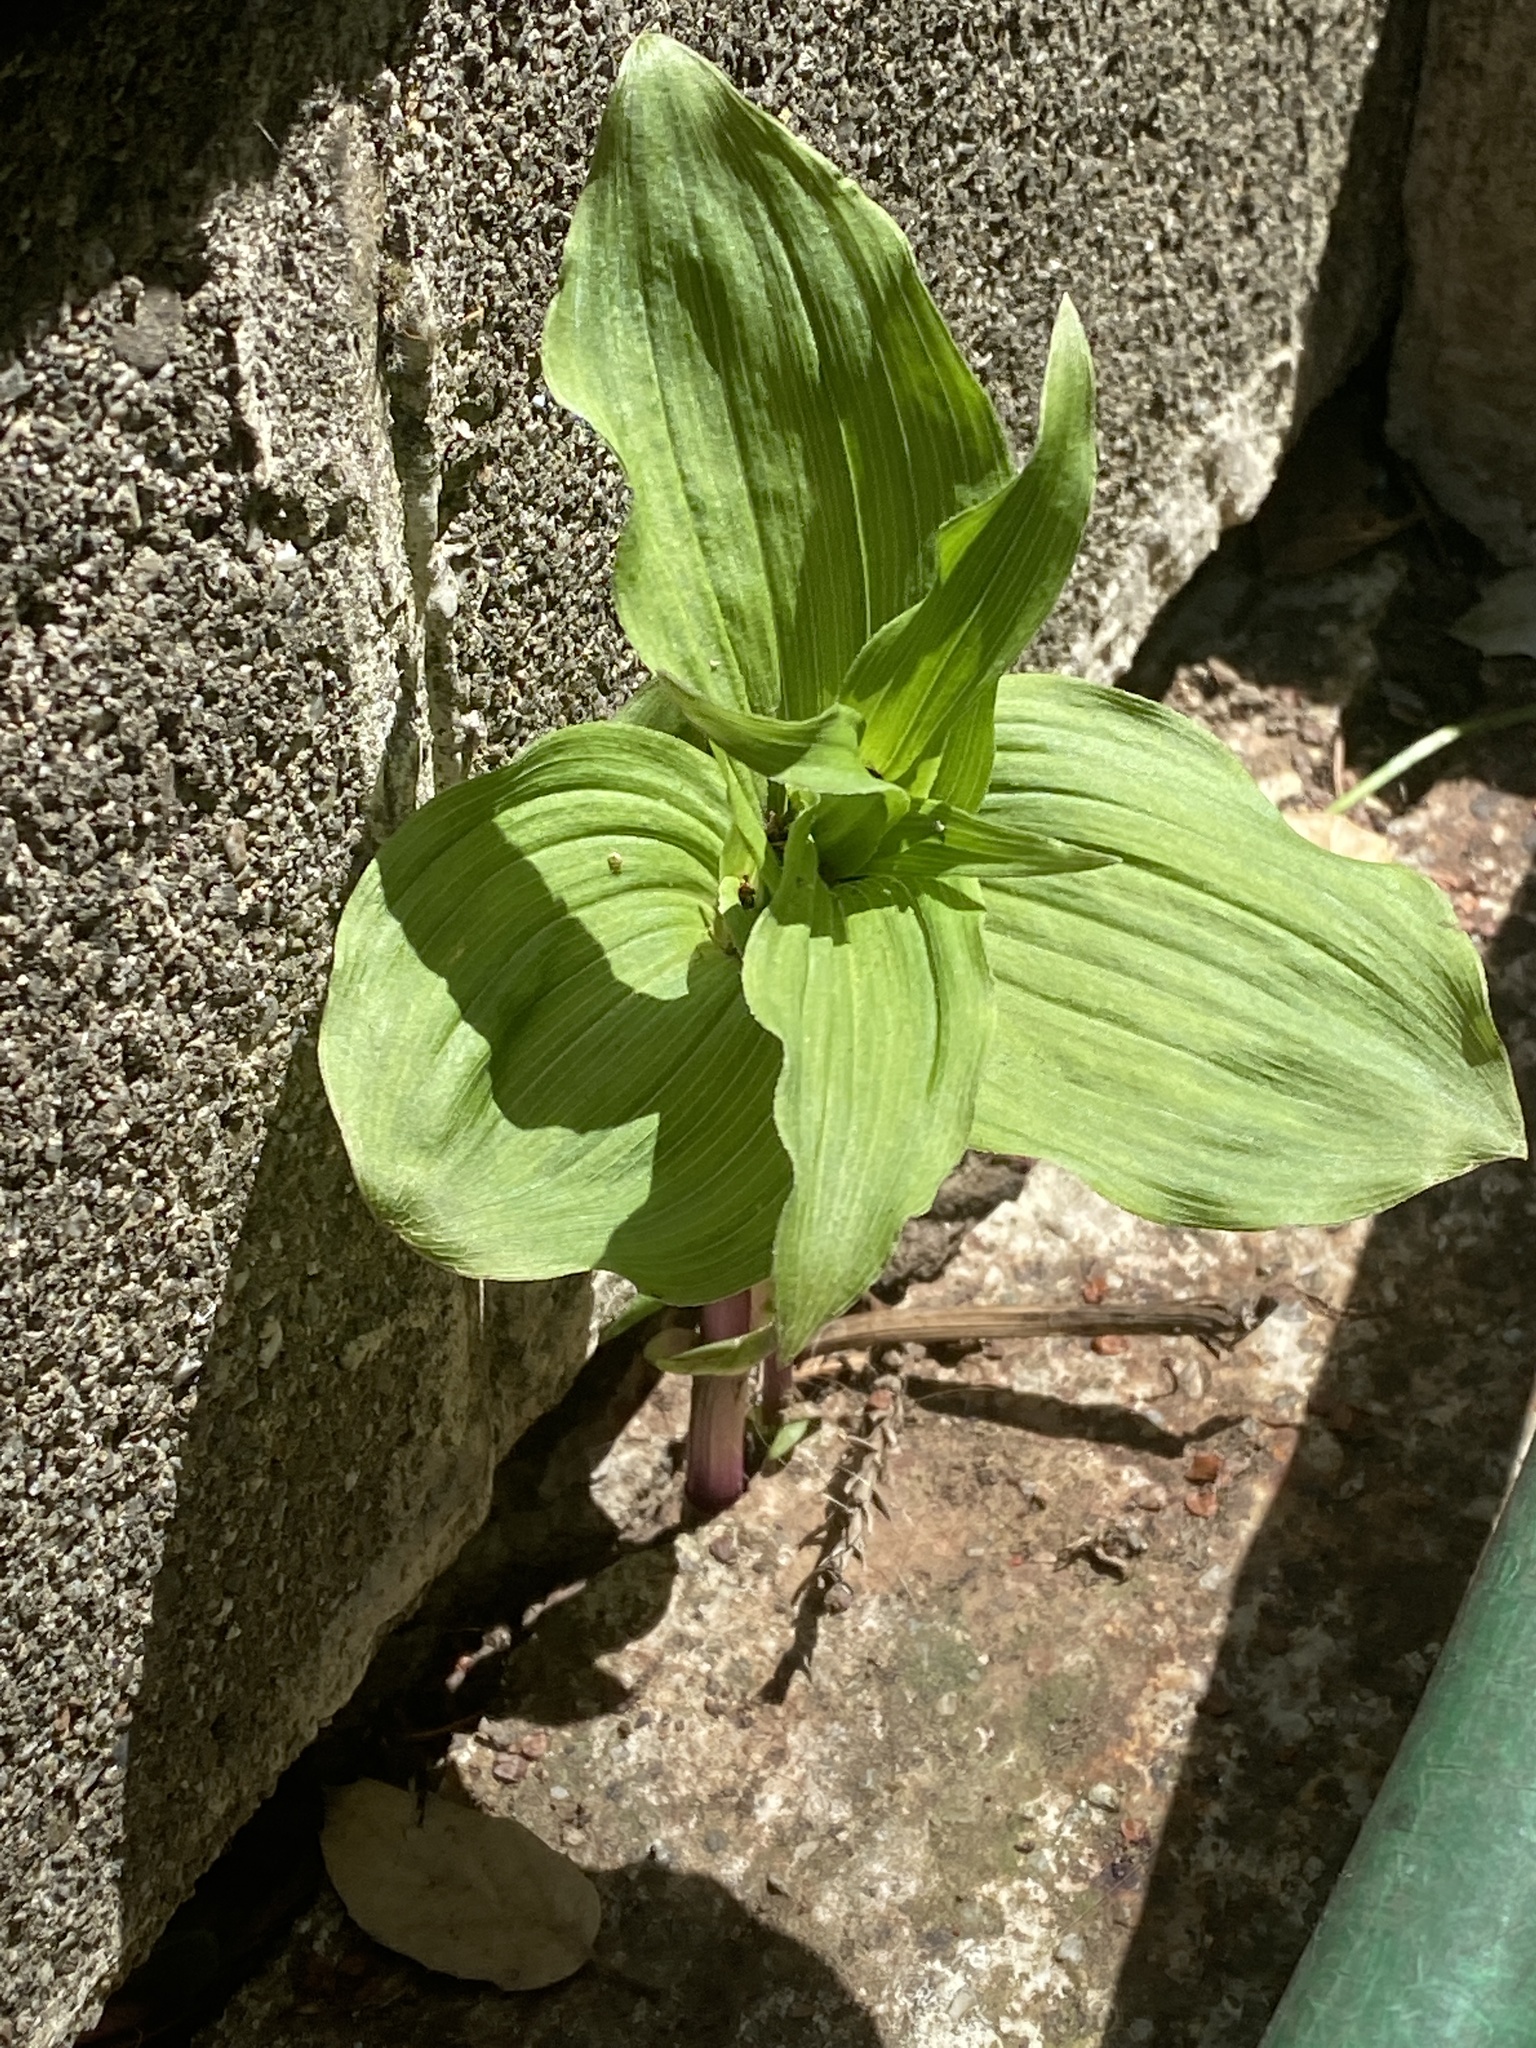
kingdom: Plantae
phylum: Tracheophyta
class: Liliopsida
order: Asparagales
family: Orchidaceae
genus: Epipactis
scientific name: Epipactis helleborine
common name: Broad-leaved helleborine
